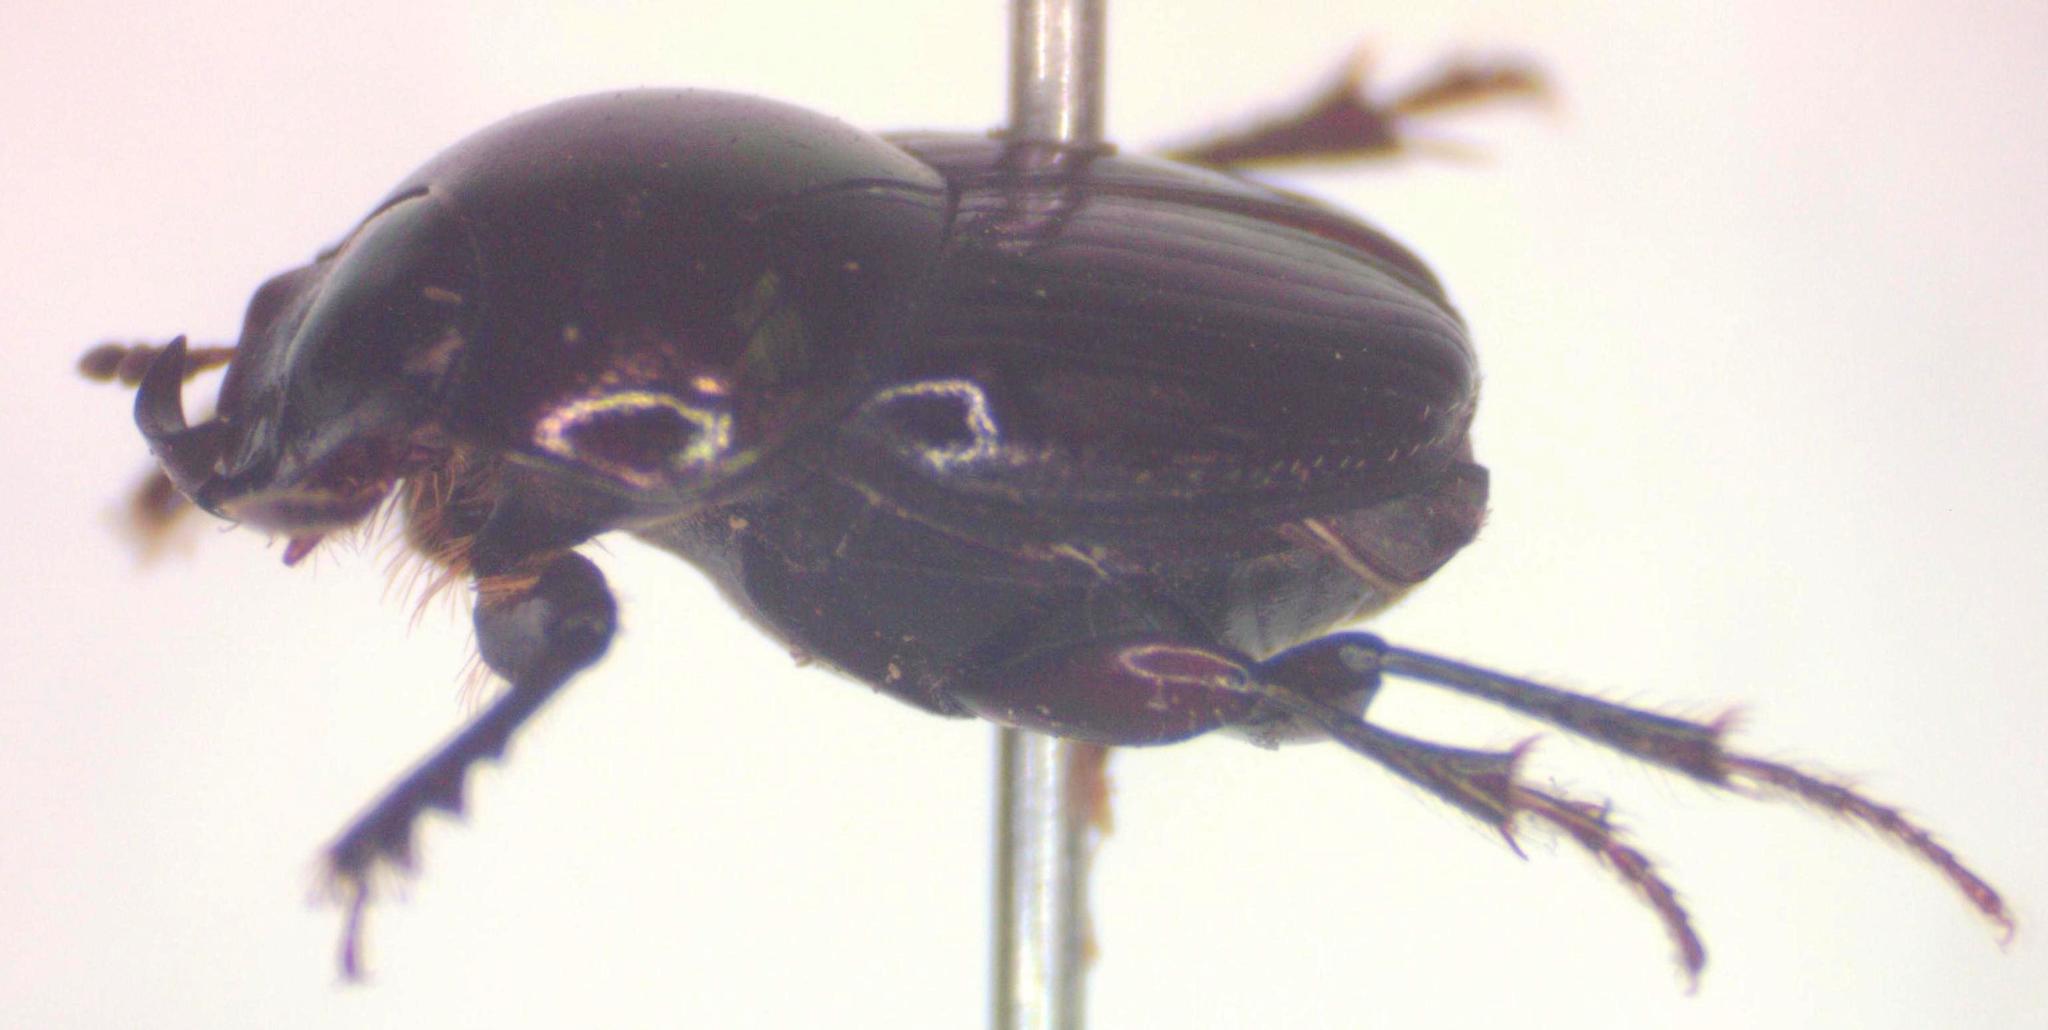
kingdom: Animalia
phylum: Arthropoda
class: Insecta
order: Coleoptera
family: Scarabaeidae
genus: Onthophagus
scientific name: Onthophagus tapirus
